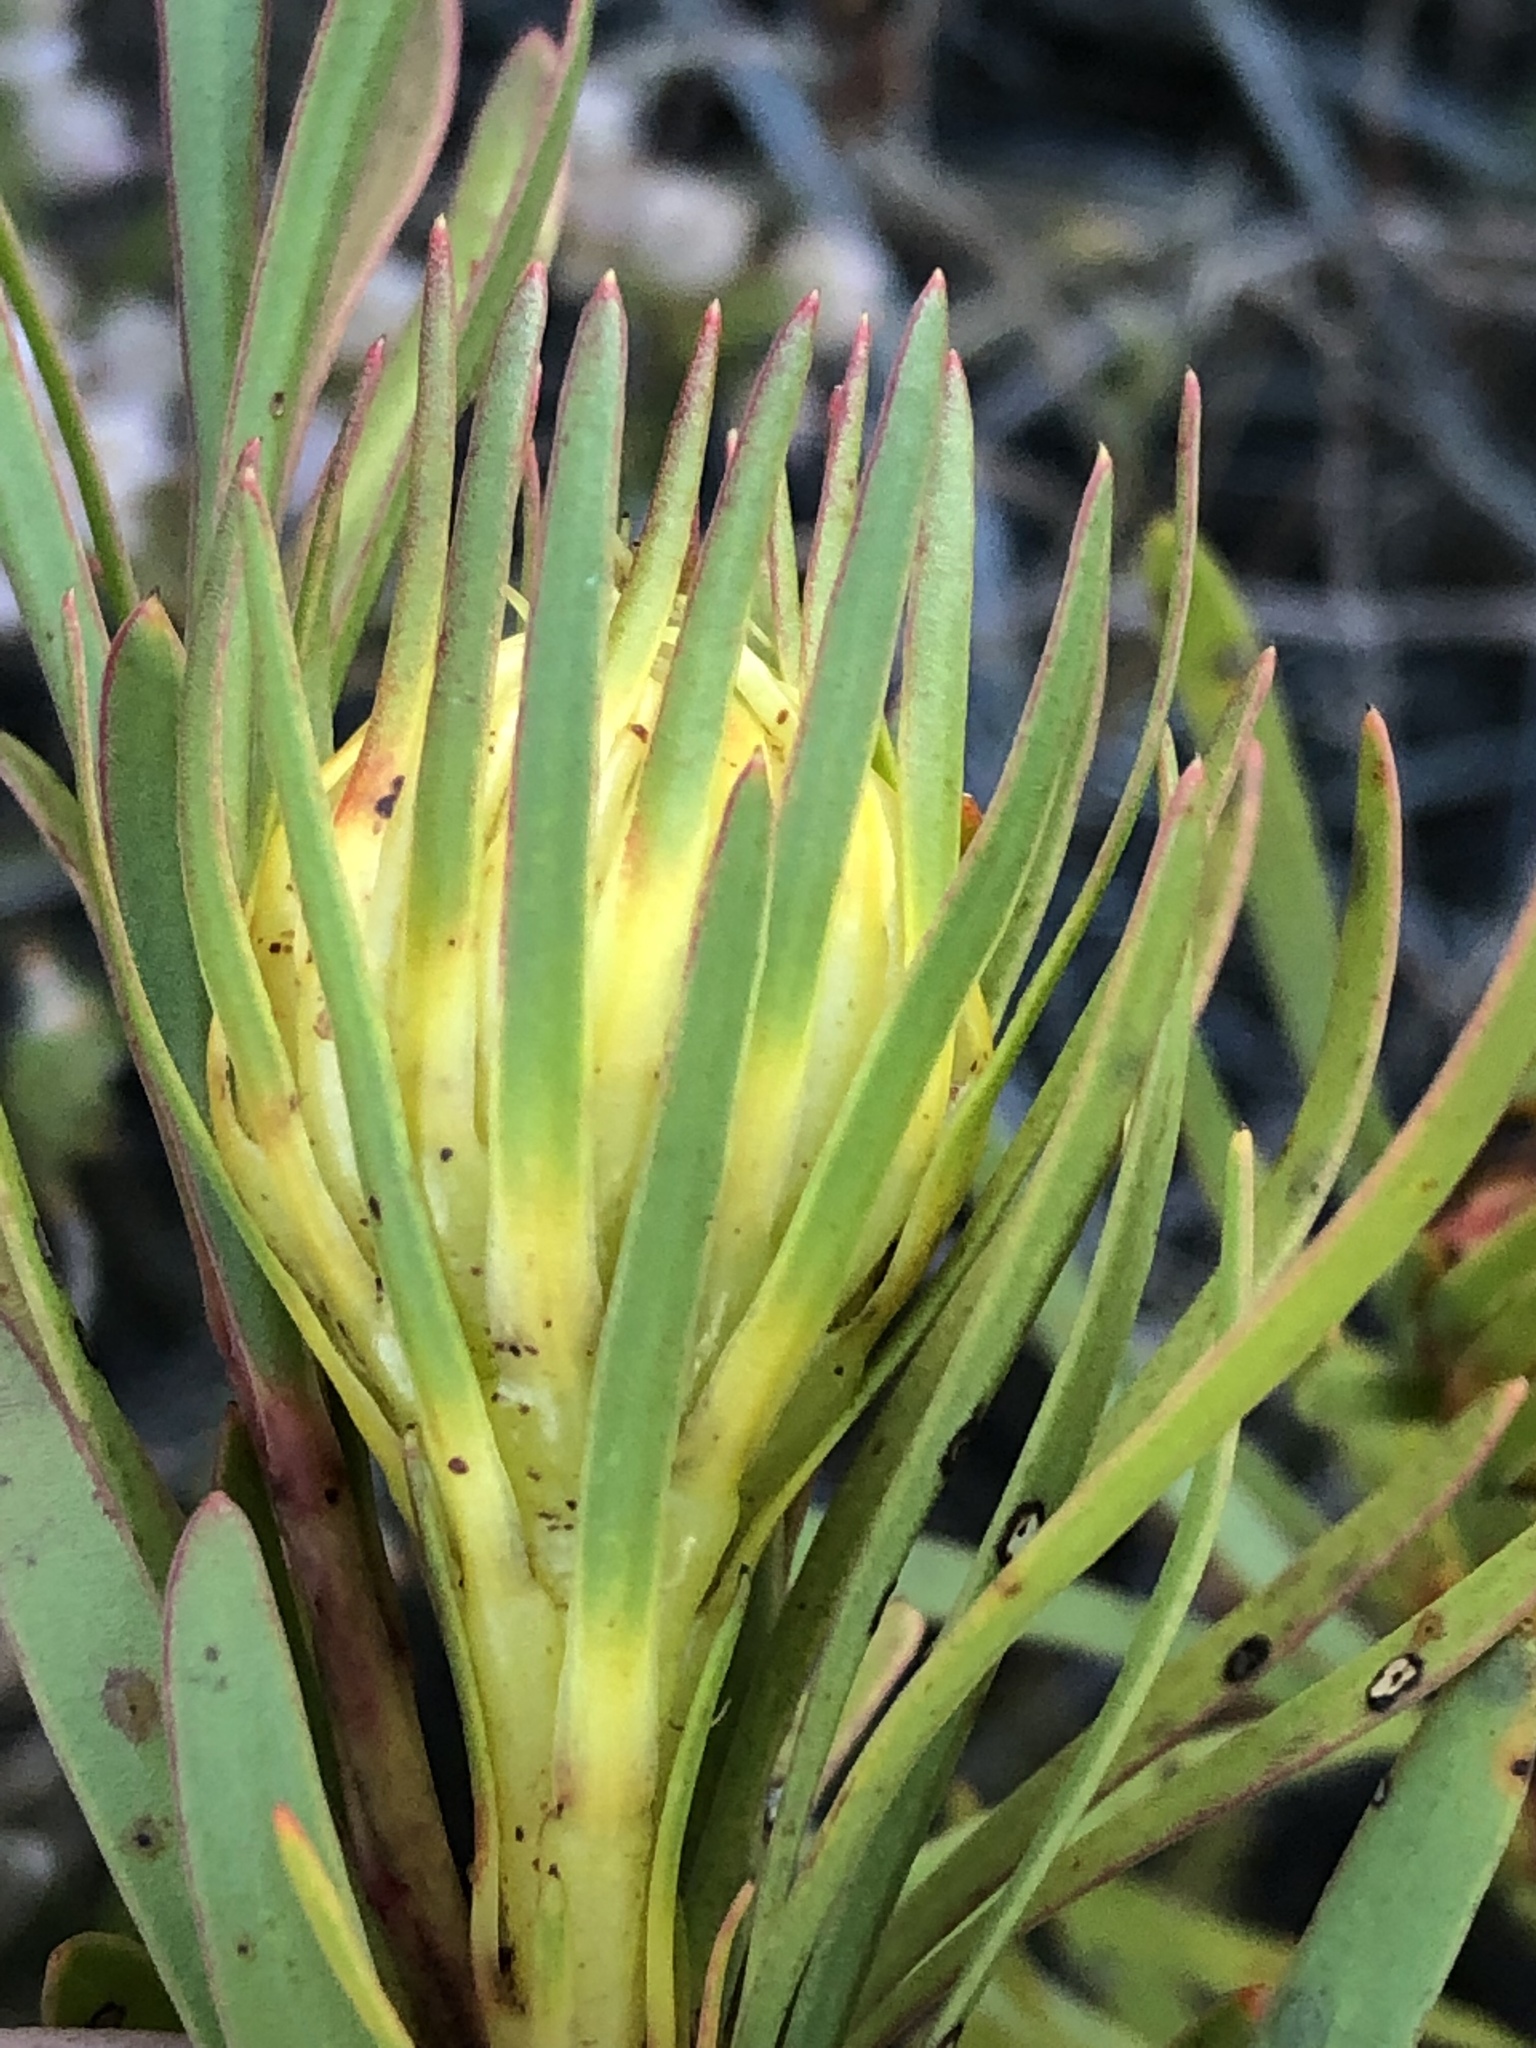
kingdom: Plantae
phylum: Tracheophyta
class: Magnoliopsida
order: Proteales
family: Proteaceae
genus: Aulax
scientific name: Aulax umbellata
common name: Broad-leaf featherbush
